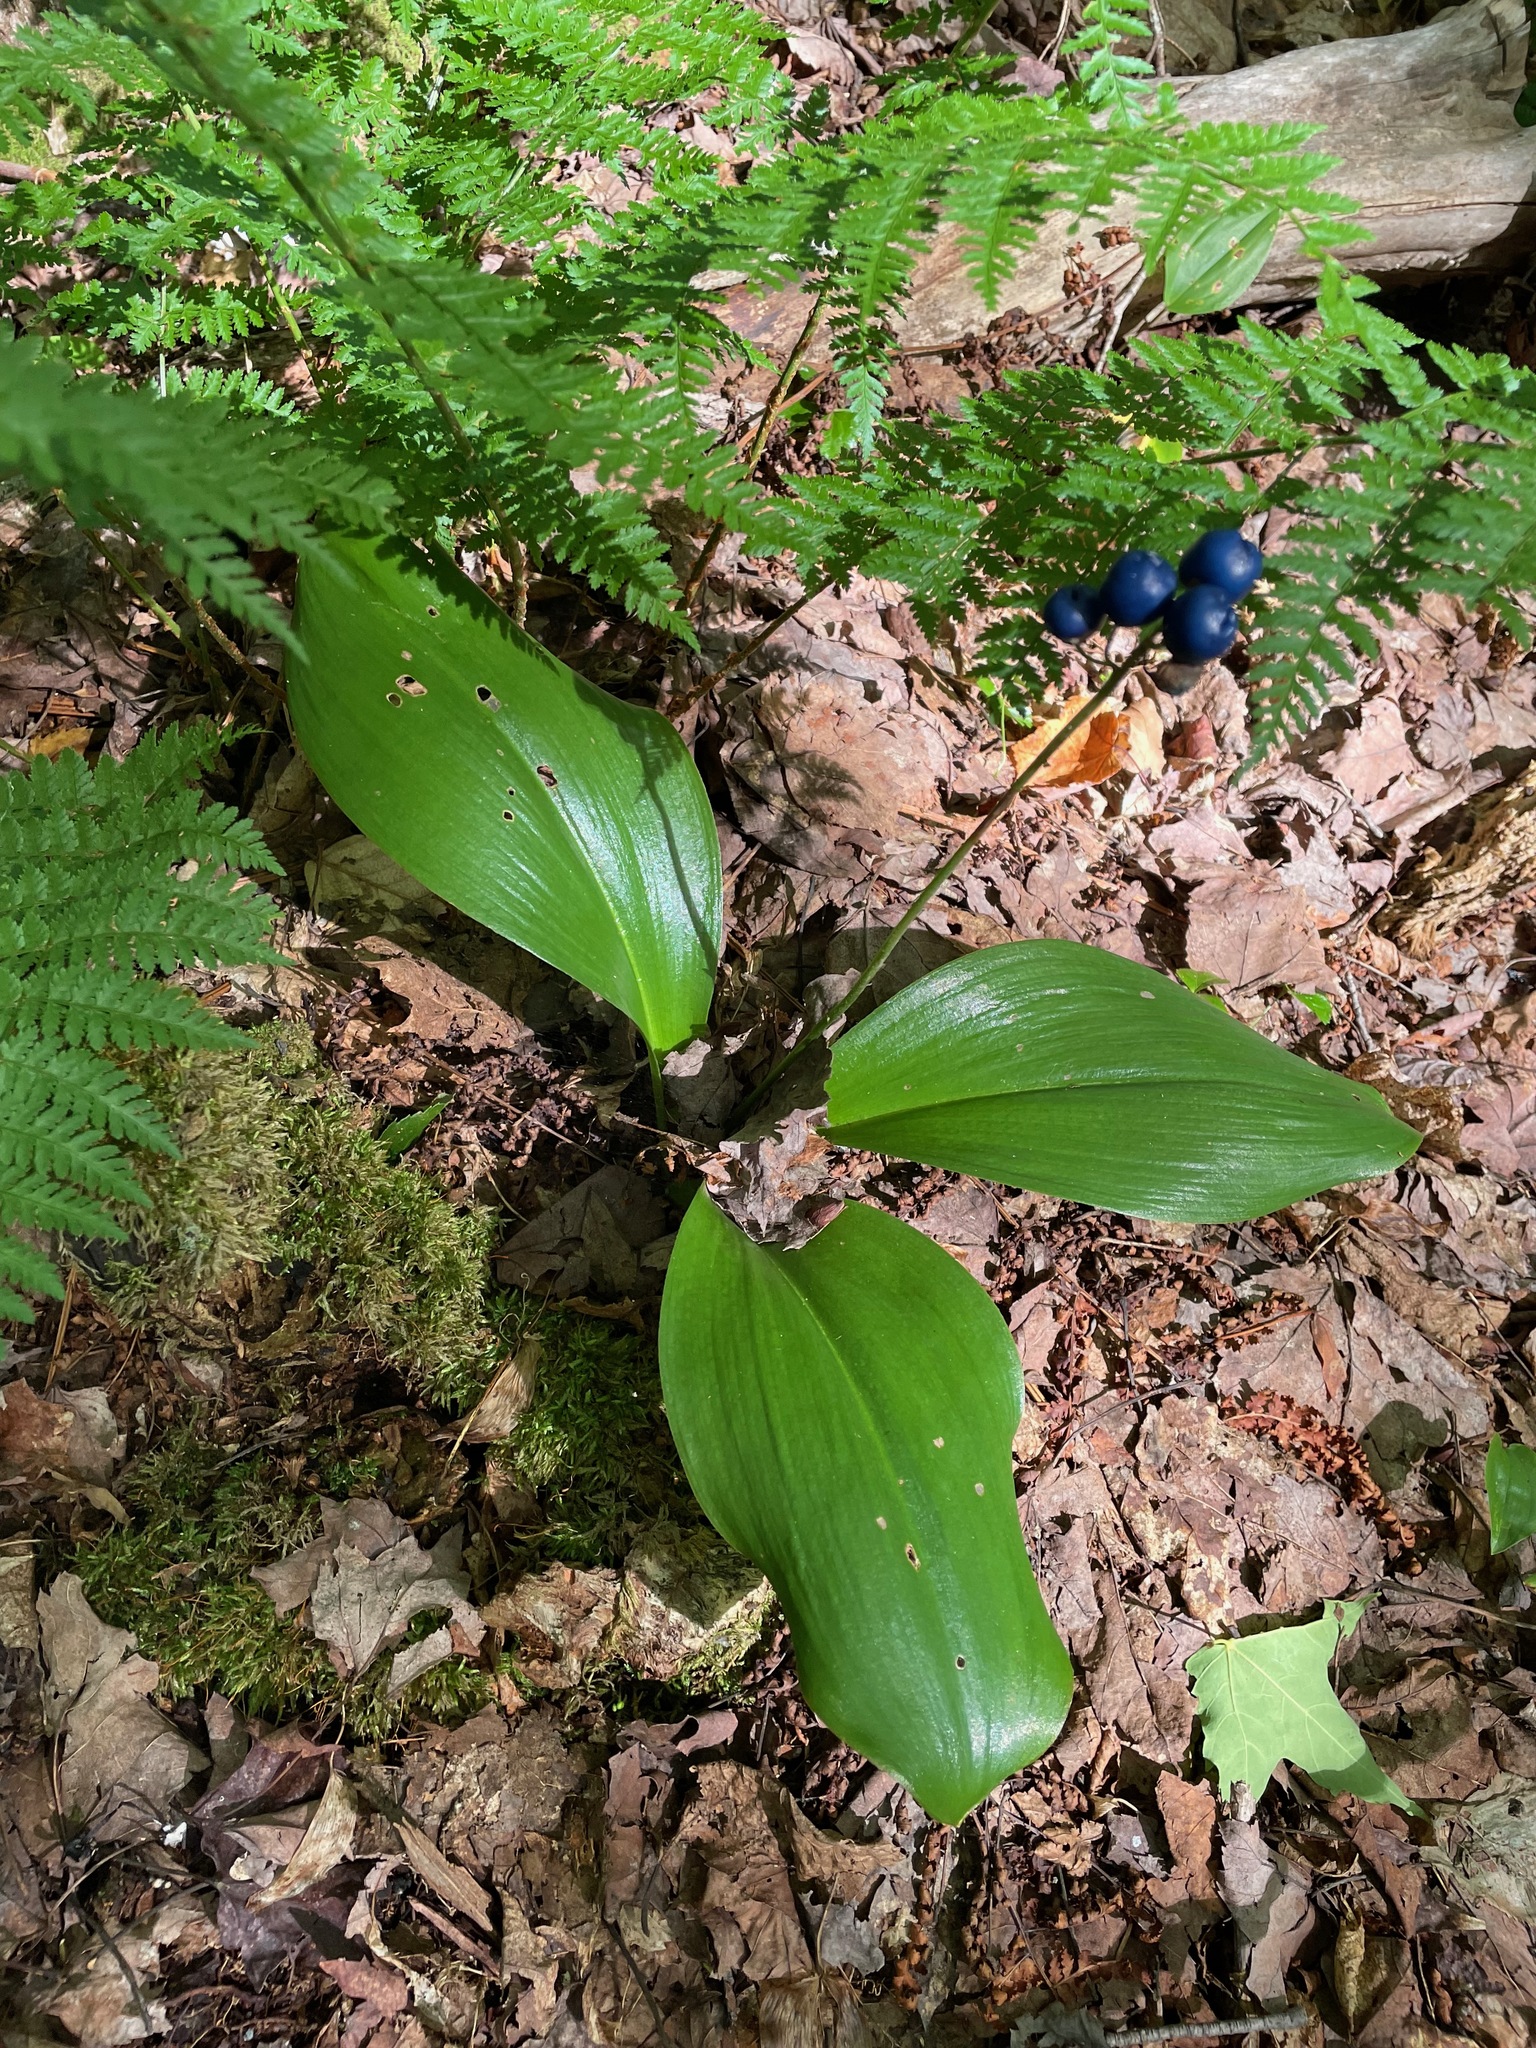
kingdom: Plantae
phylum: Tracheophyta
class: Liliopsida
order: Liliales
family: Liliaceae
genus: Clintonia
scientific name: Clintonia borealis
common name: Yellow clintonia
